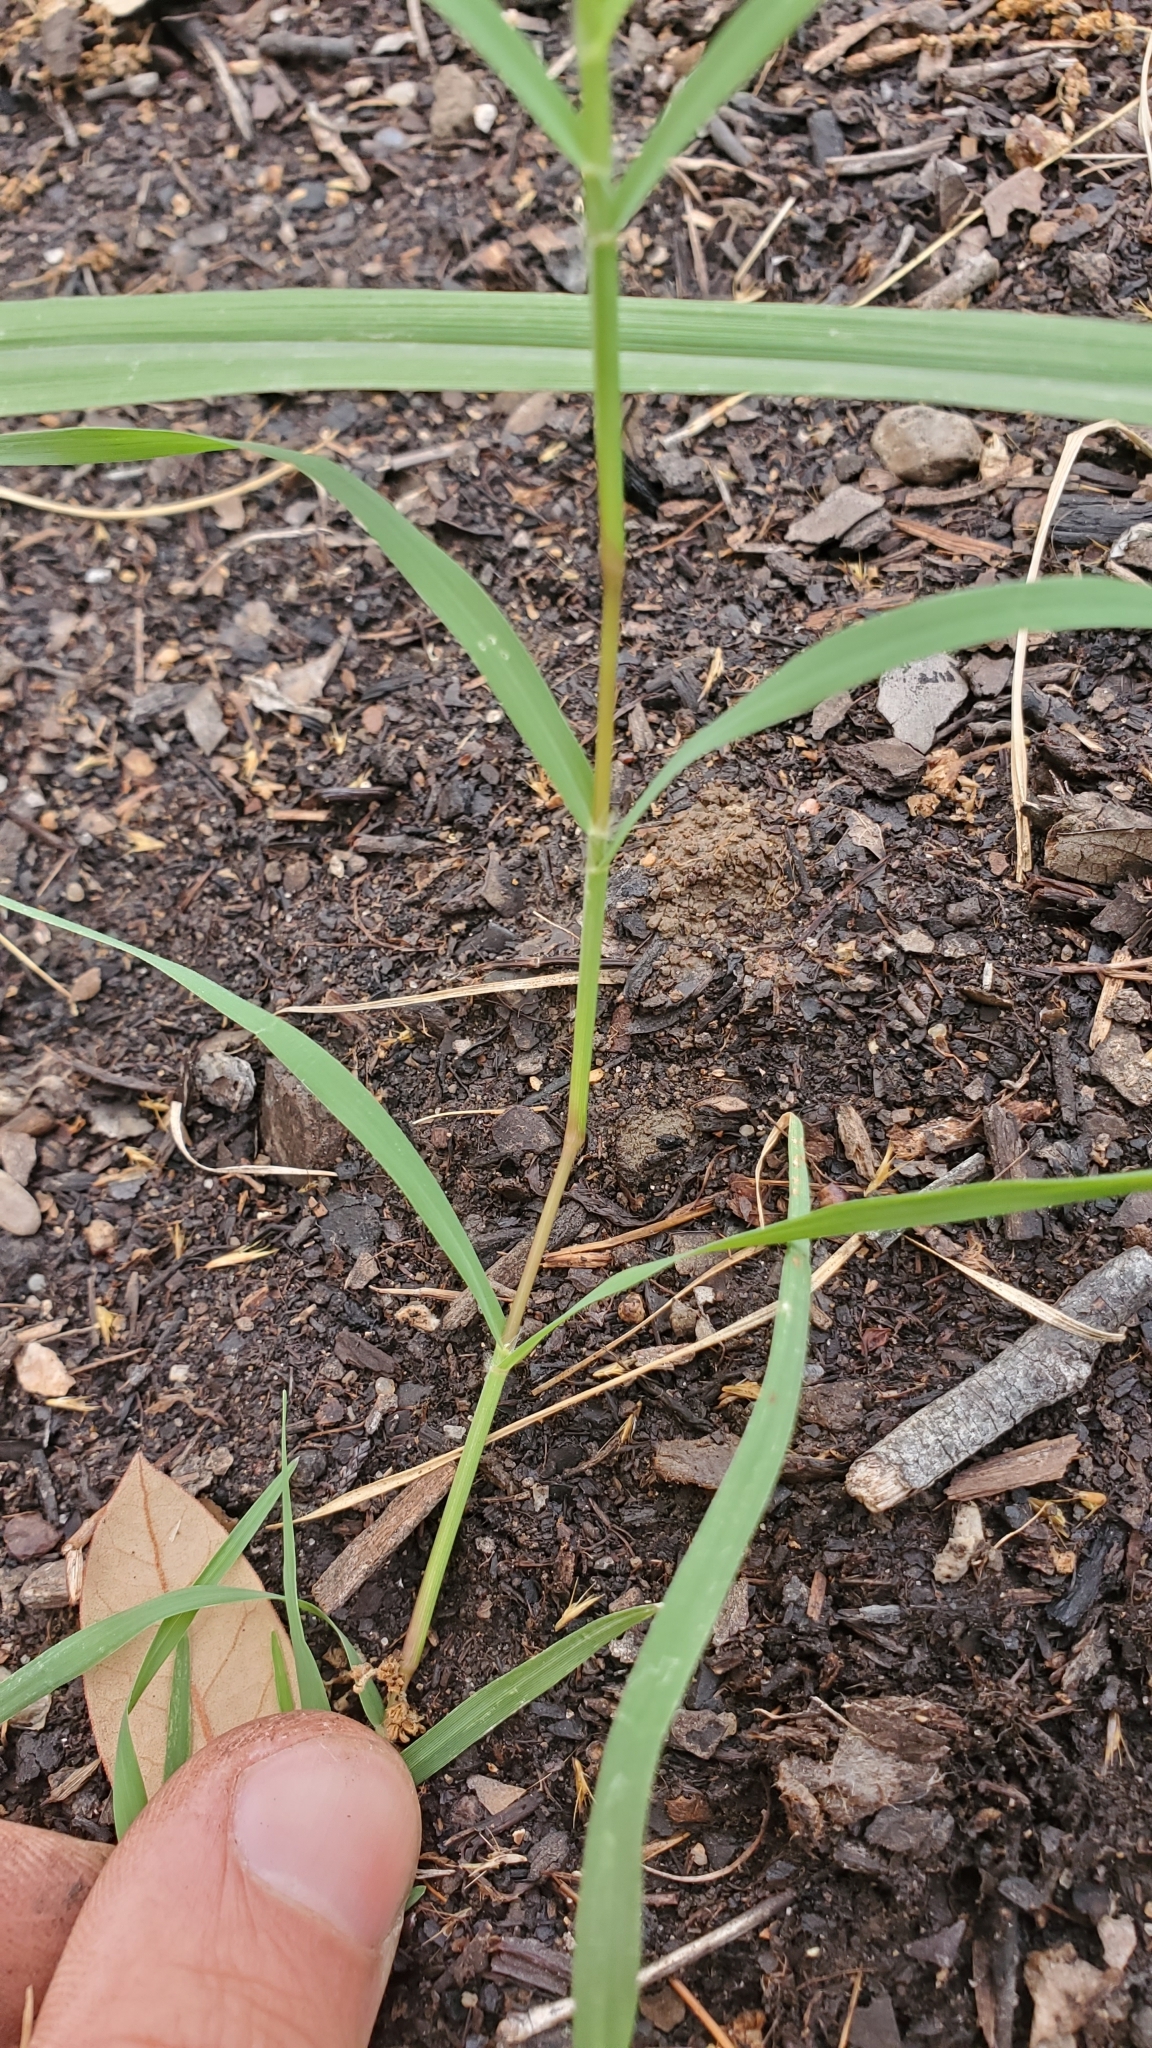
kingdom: Plantae
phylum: Tracheophyta
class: Liliopsida
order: Poales
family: Poaceae
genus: Cynodon
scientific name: Cynodon dactylon
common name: Bermuda grass
